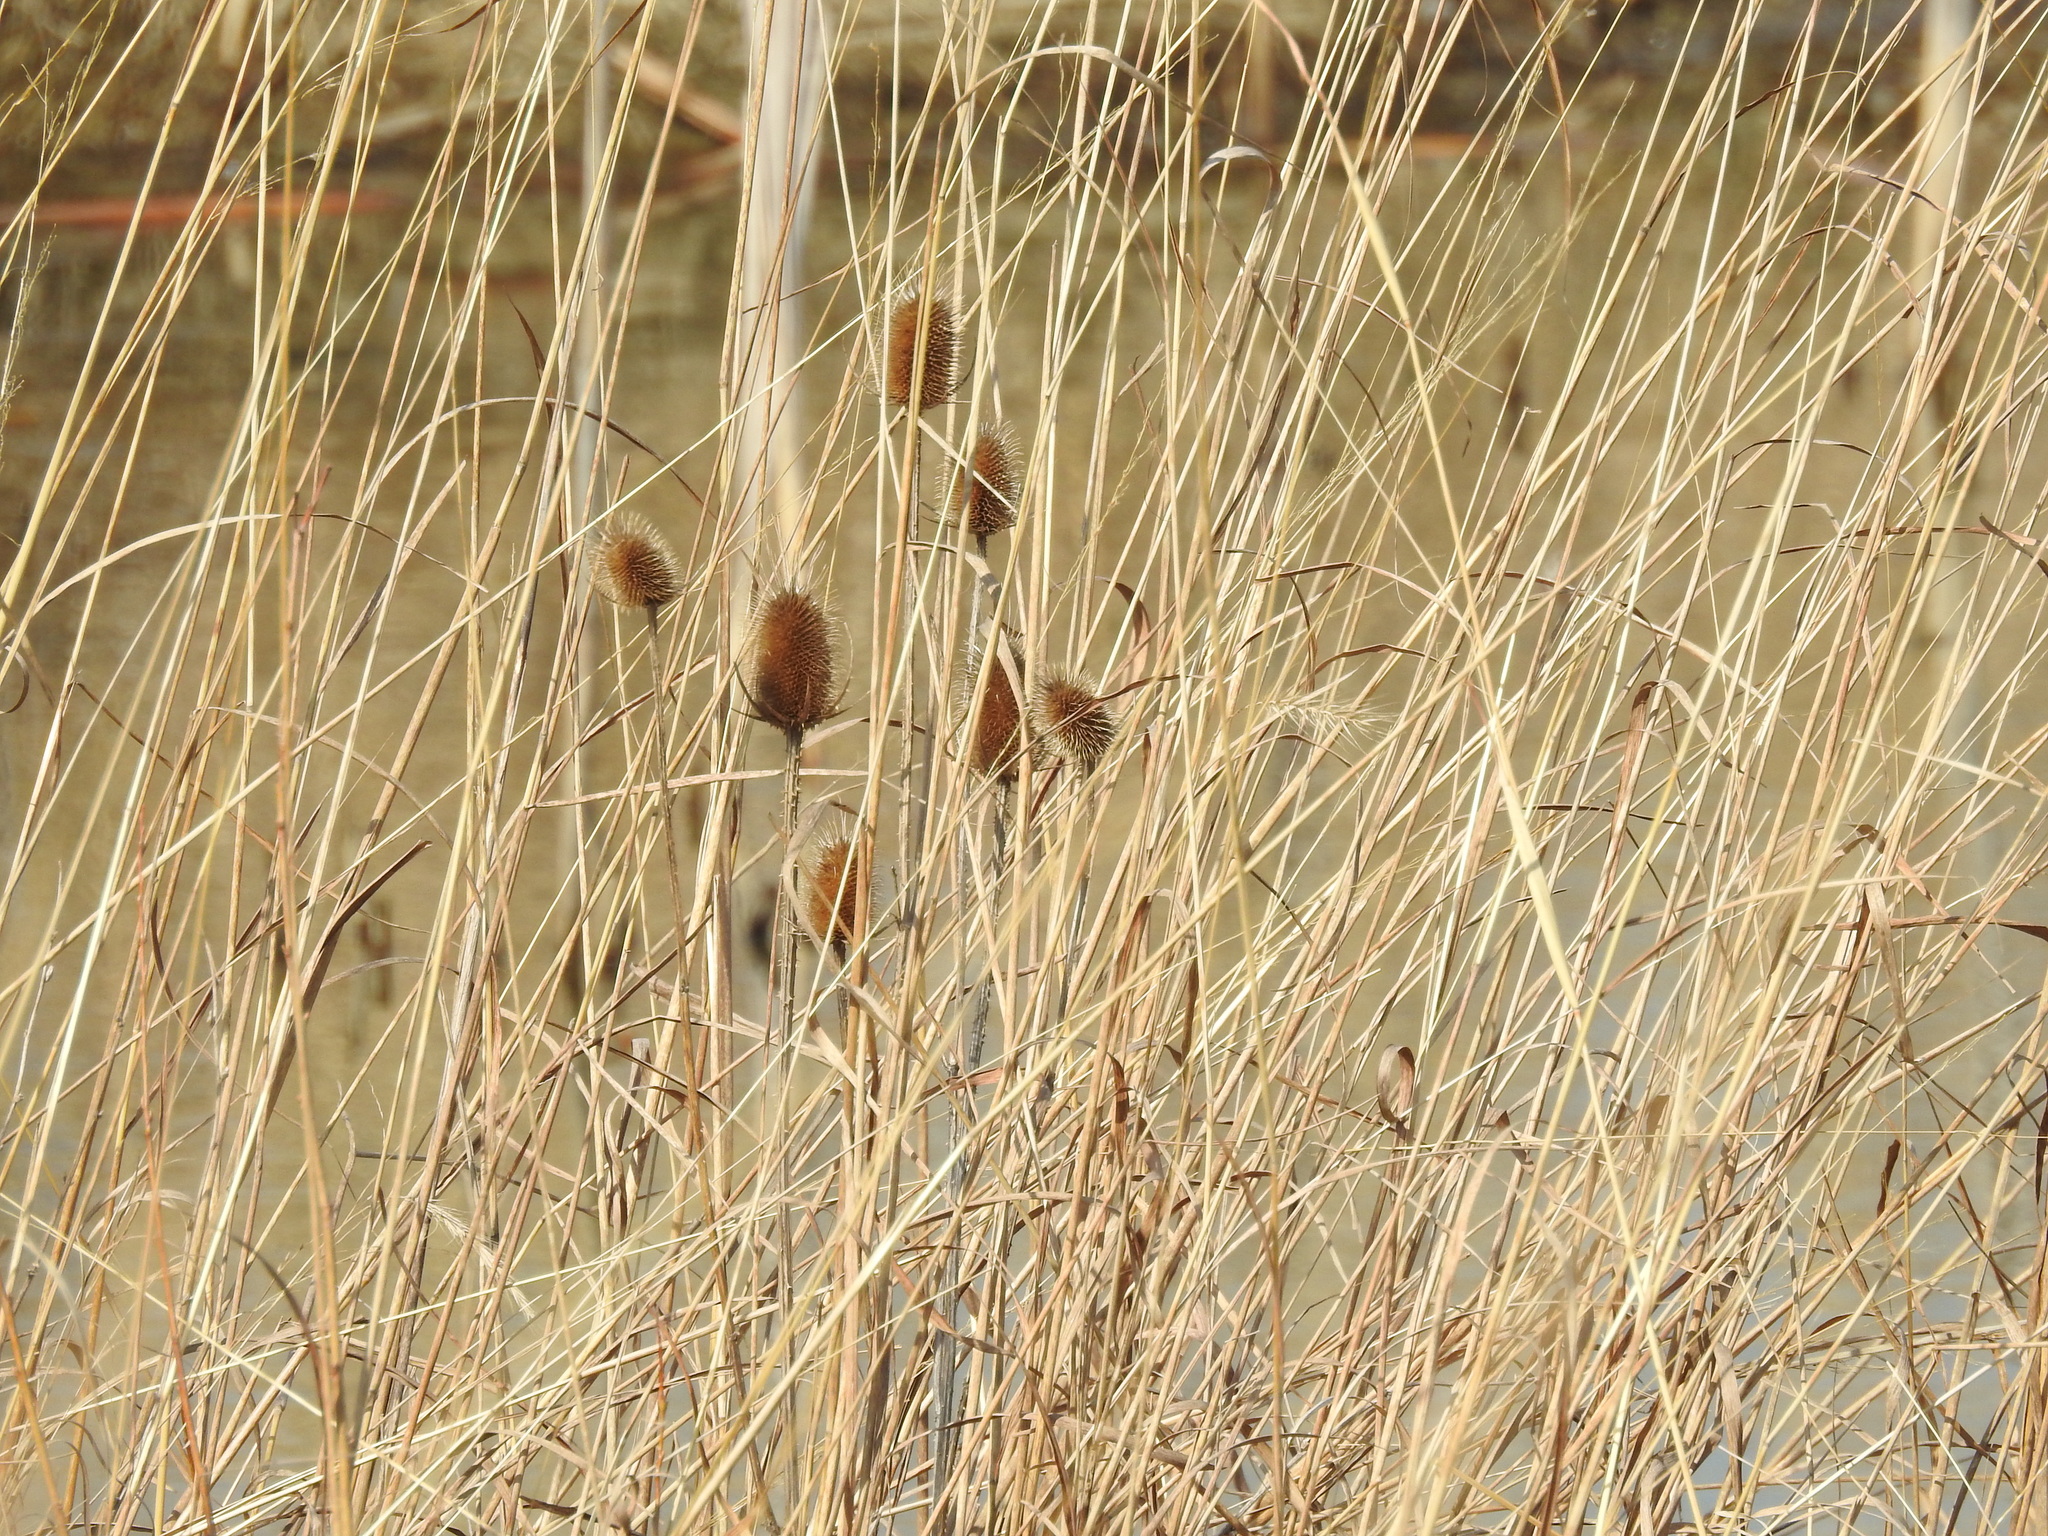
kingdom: Plantae
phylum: Tracheophyta
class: Magnoliopsida
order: Dipsacales
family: Caprifoliaceae
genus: Dipsacus
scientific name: Dipsacus laciniatus
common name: Cut-leaved teasel
